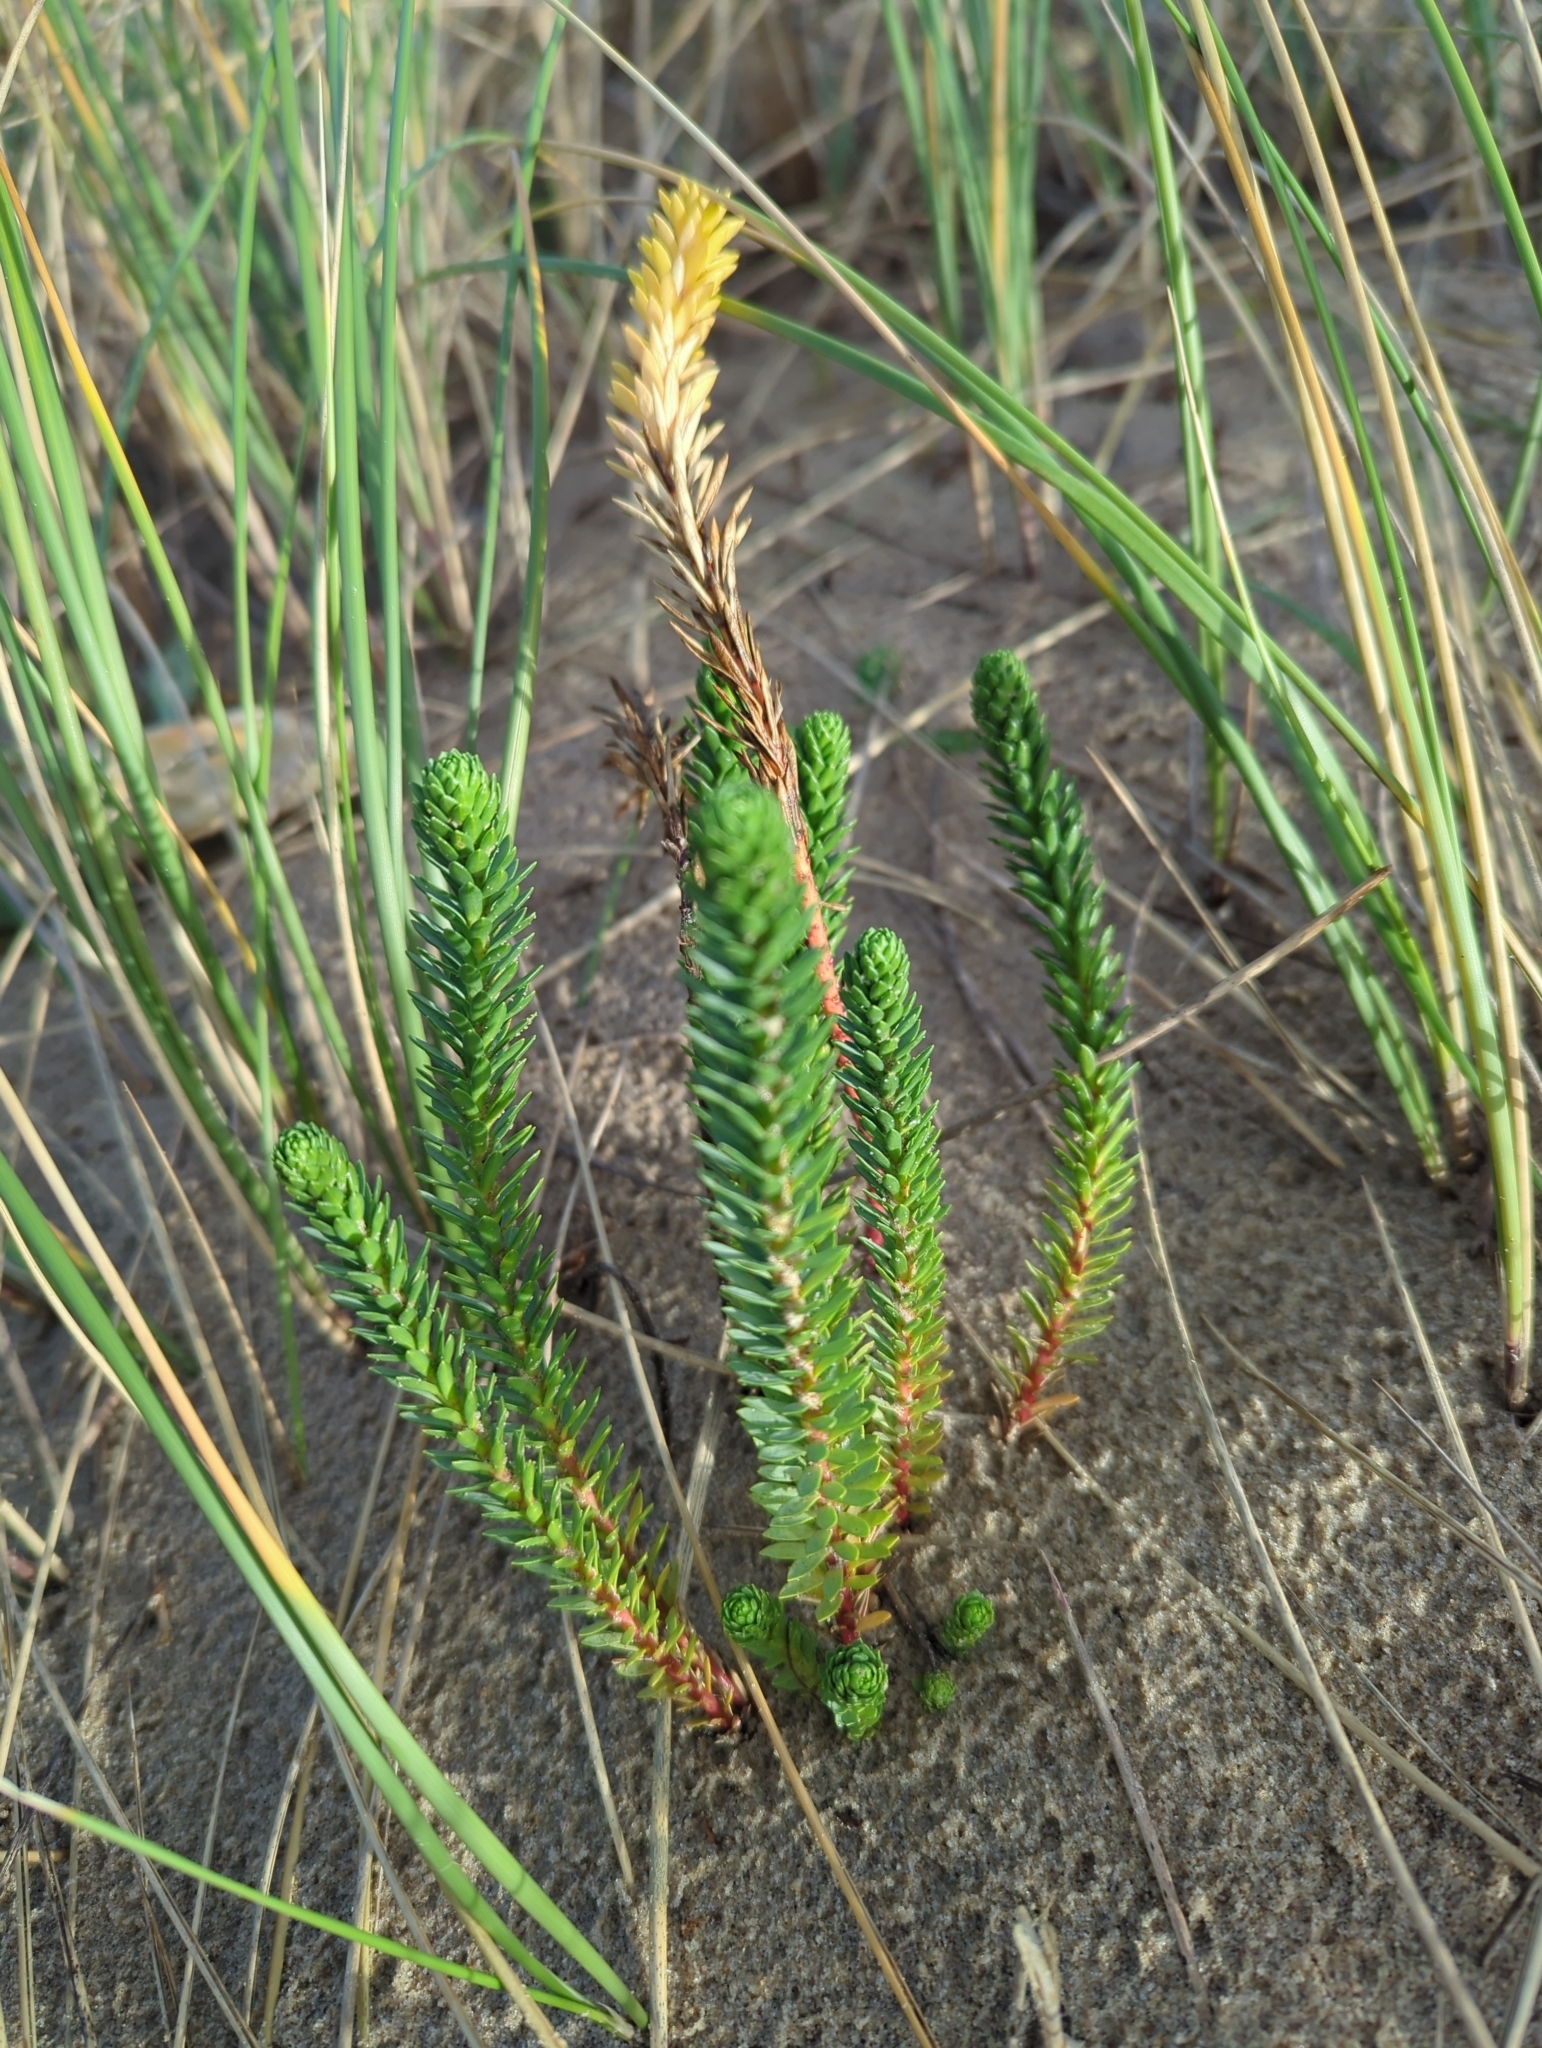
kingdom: Plantae
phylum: Tracheophyta
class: Magnoliopsida
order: Malpighiales
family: Euphorbiaceae
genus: Euphorbia
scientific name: Euphorbia paralias
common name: Sea spurge
